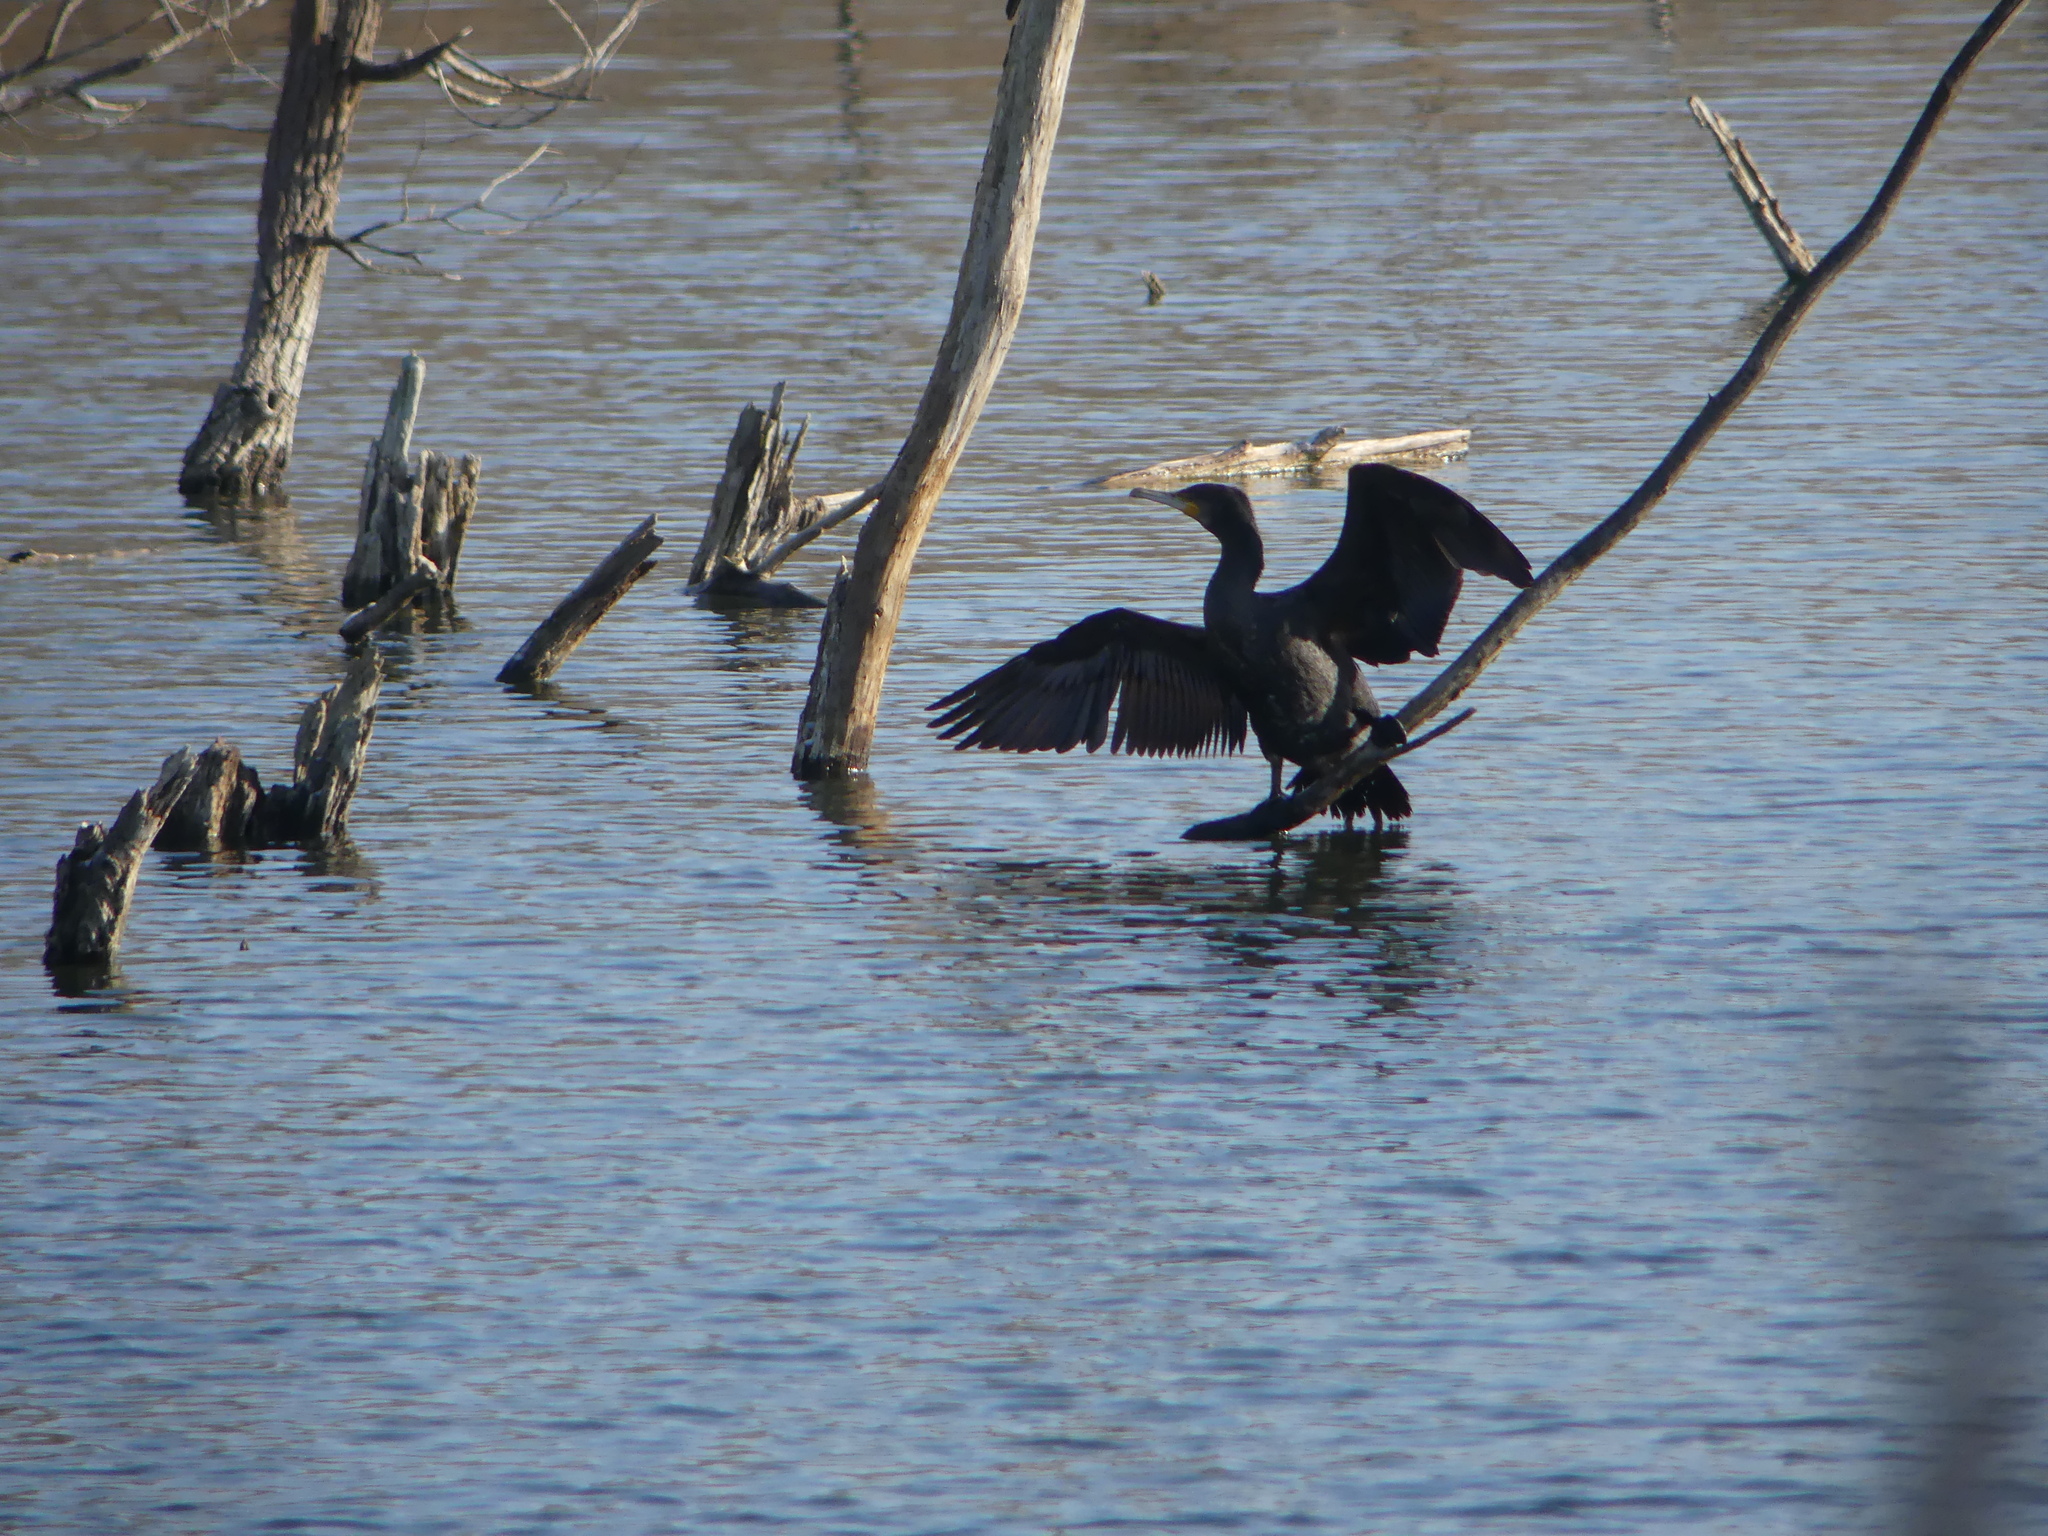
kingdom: Animalia
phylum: Chordata
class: Aves
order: Suliformes
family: Phalacrocoracidae
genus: Phalacrocorax
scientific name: Phalacrocorax carbo
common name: Great cormorant
